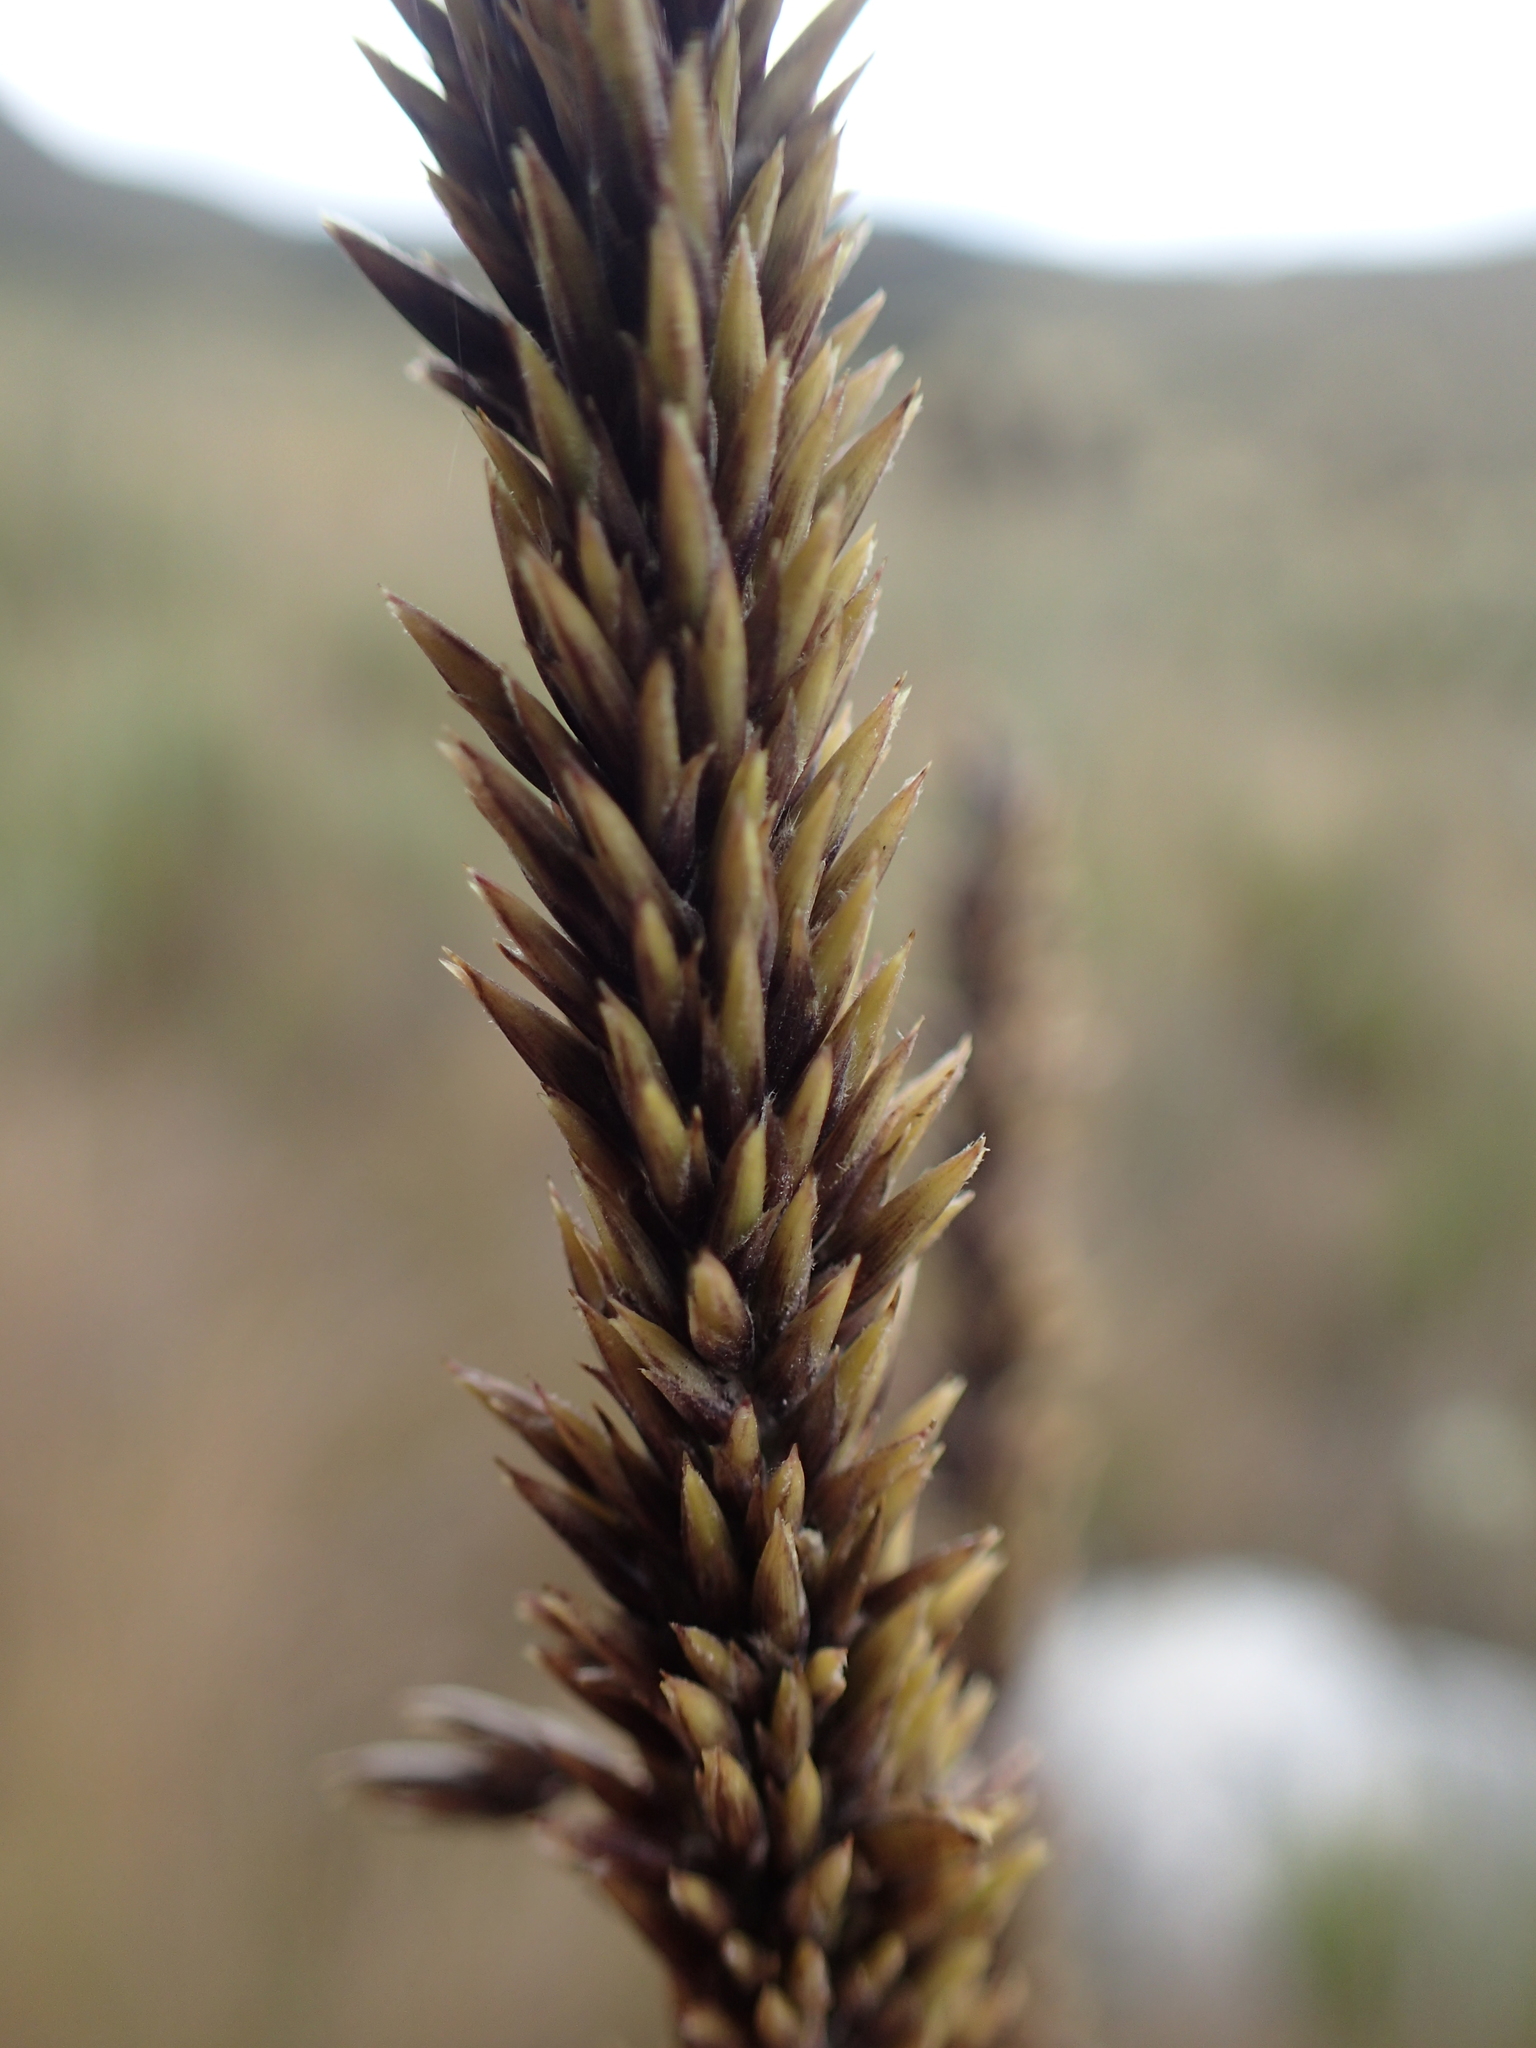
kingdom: Plantae
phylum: Tracheophyta
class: Liliopsida
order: Poales
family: Poaceae
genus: Chusquea
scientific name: Chusquea tessellata
